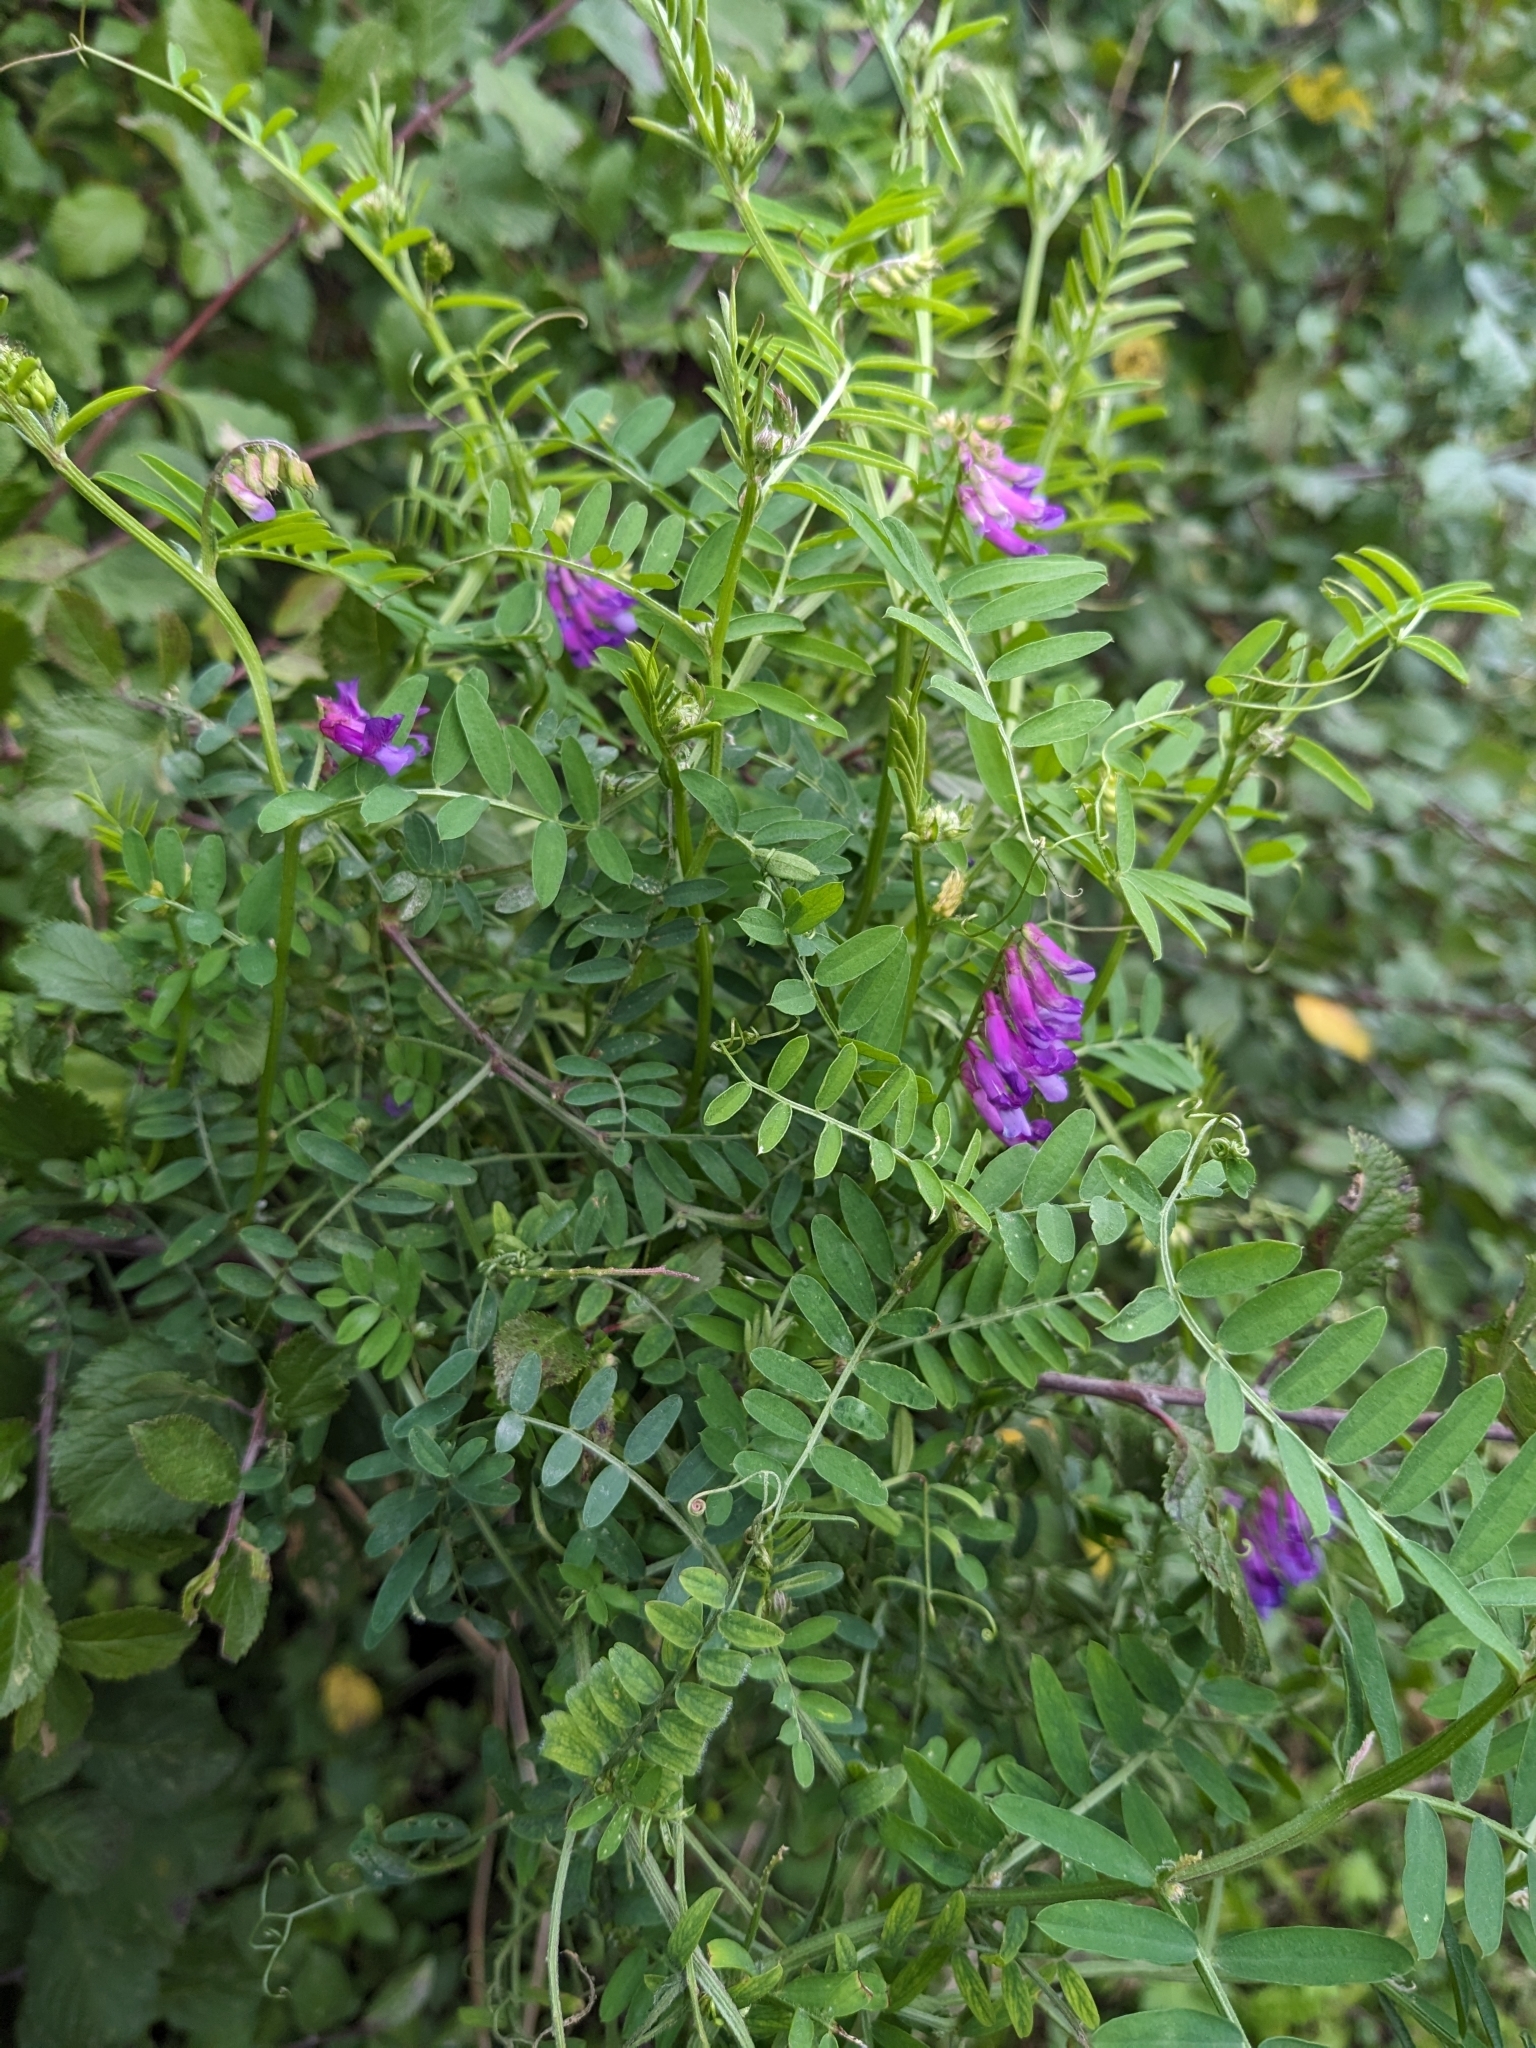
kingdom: Plantae
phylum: Tracheophyta
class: Magnoliopsida
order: Fabales
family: Fabaceae
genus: Vicia
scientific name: Vicia cracca
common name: Bird vetch
